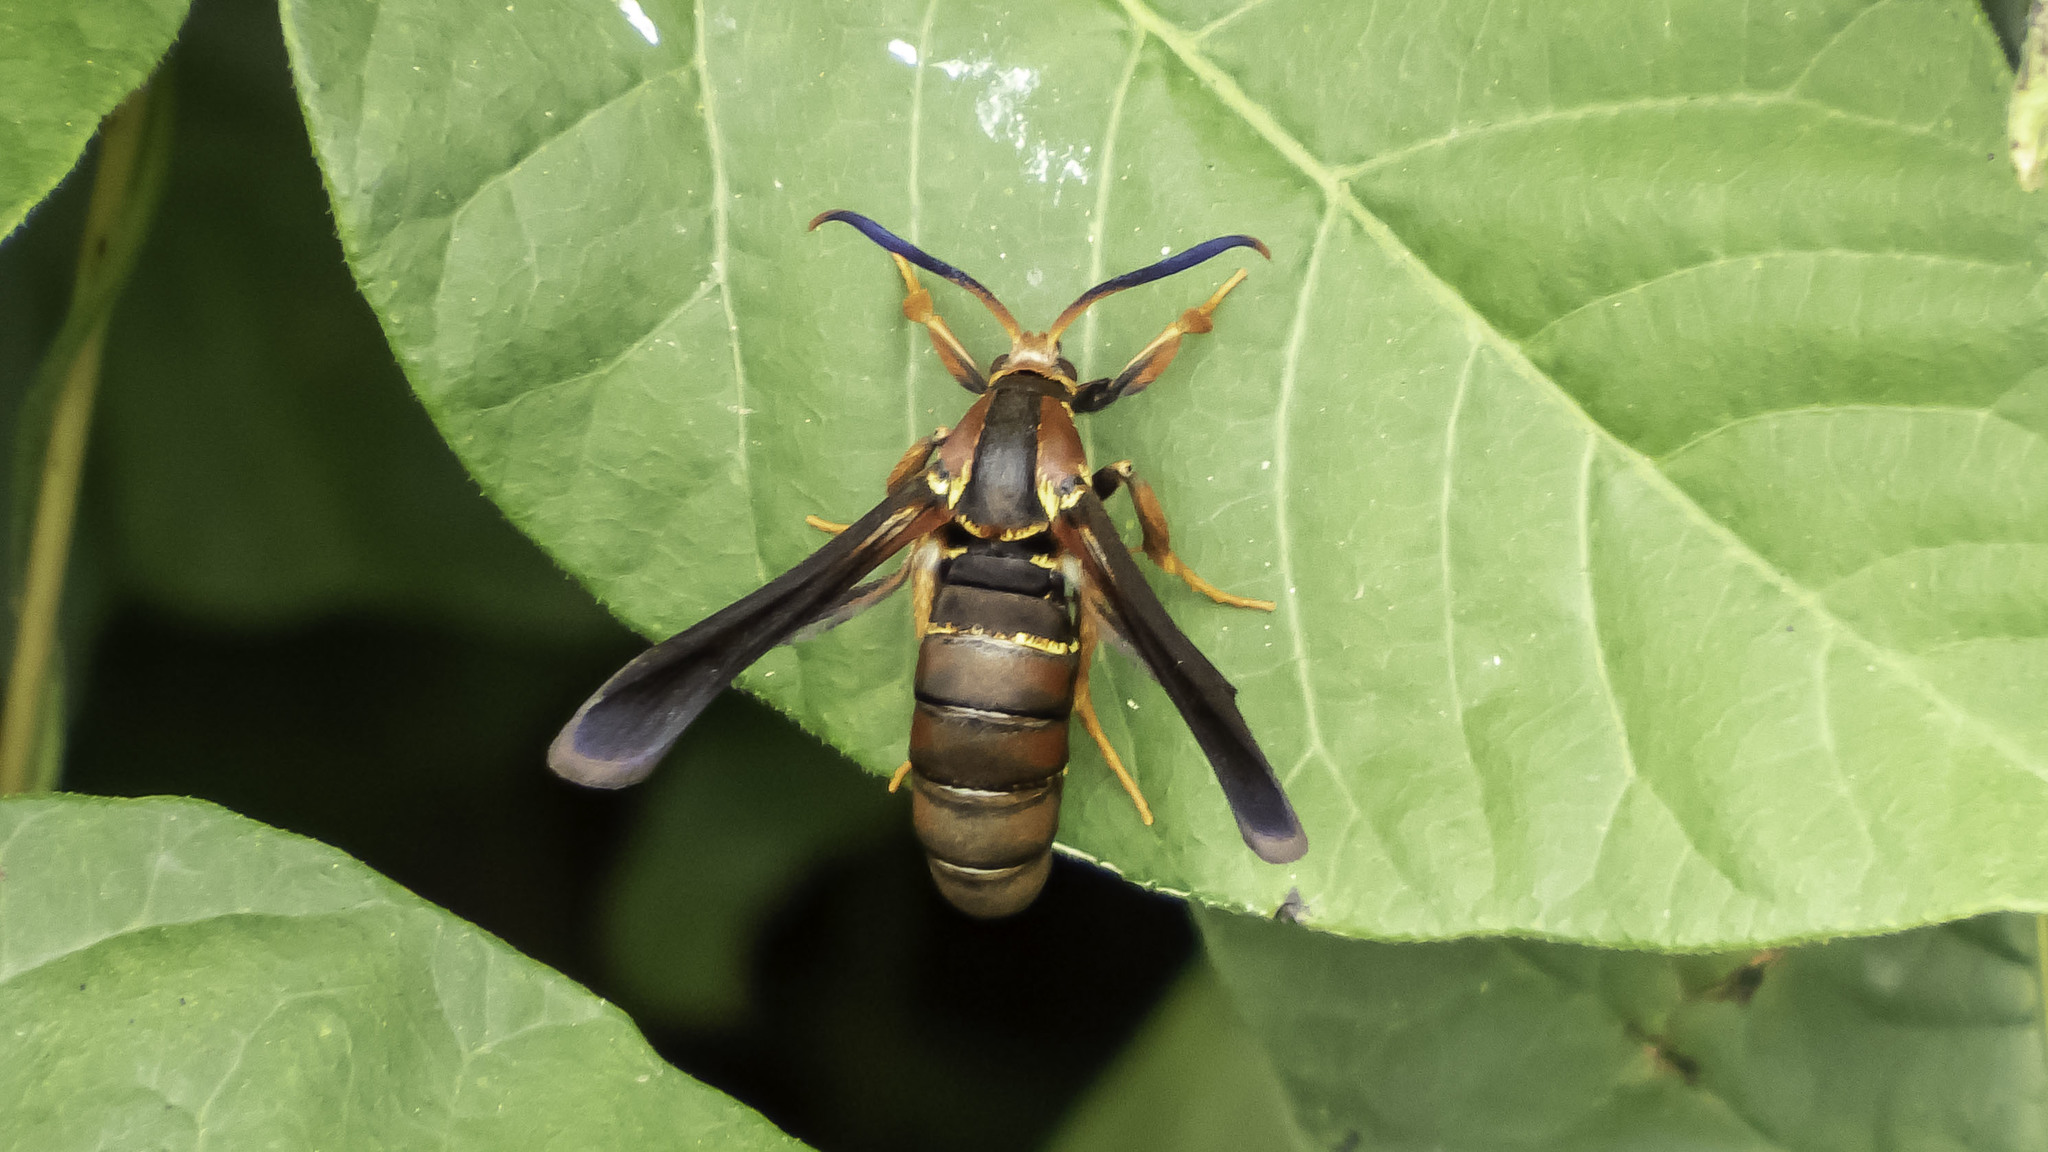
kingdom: Animalia
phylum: Arthropoda
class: Insecta
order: Lepidoptera
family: Sesiidae
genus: Vitacea
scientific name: Vitacea polistiformis
